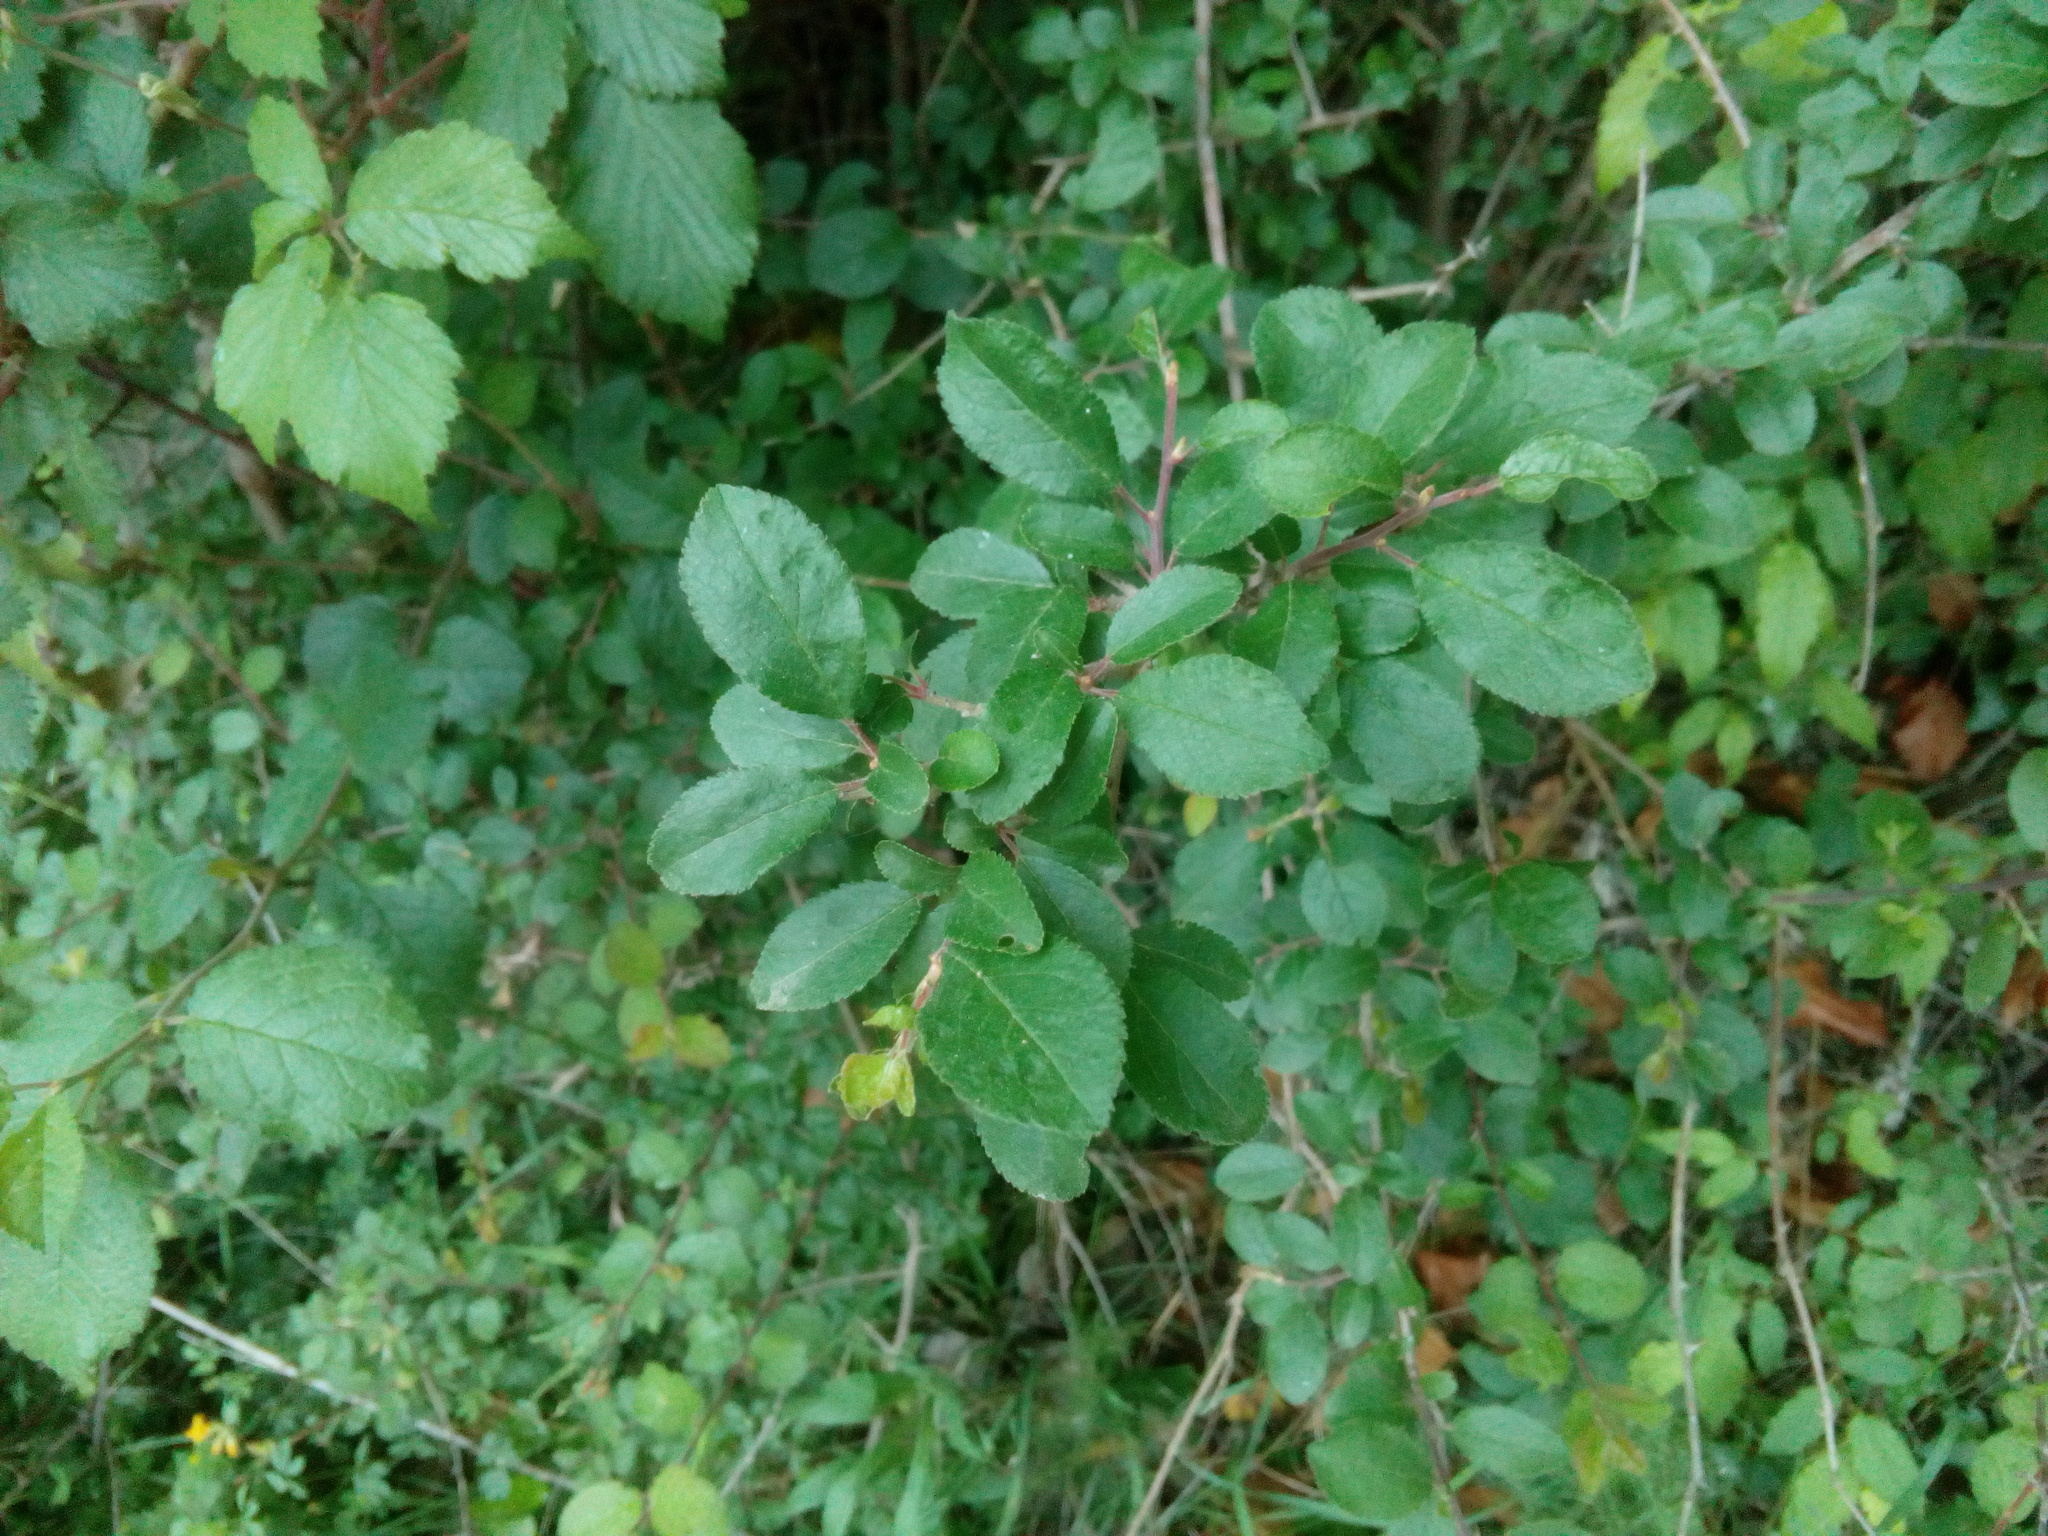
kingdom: Plantae
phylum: Tracheophyta
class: Magnoliopsida
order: Rosales
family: Rosaceae
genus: Prunus
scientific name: Prunus spinosa
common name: Blackthorn
